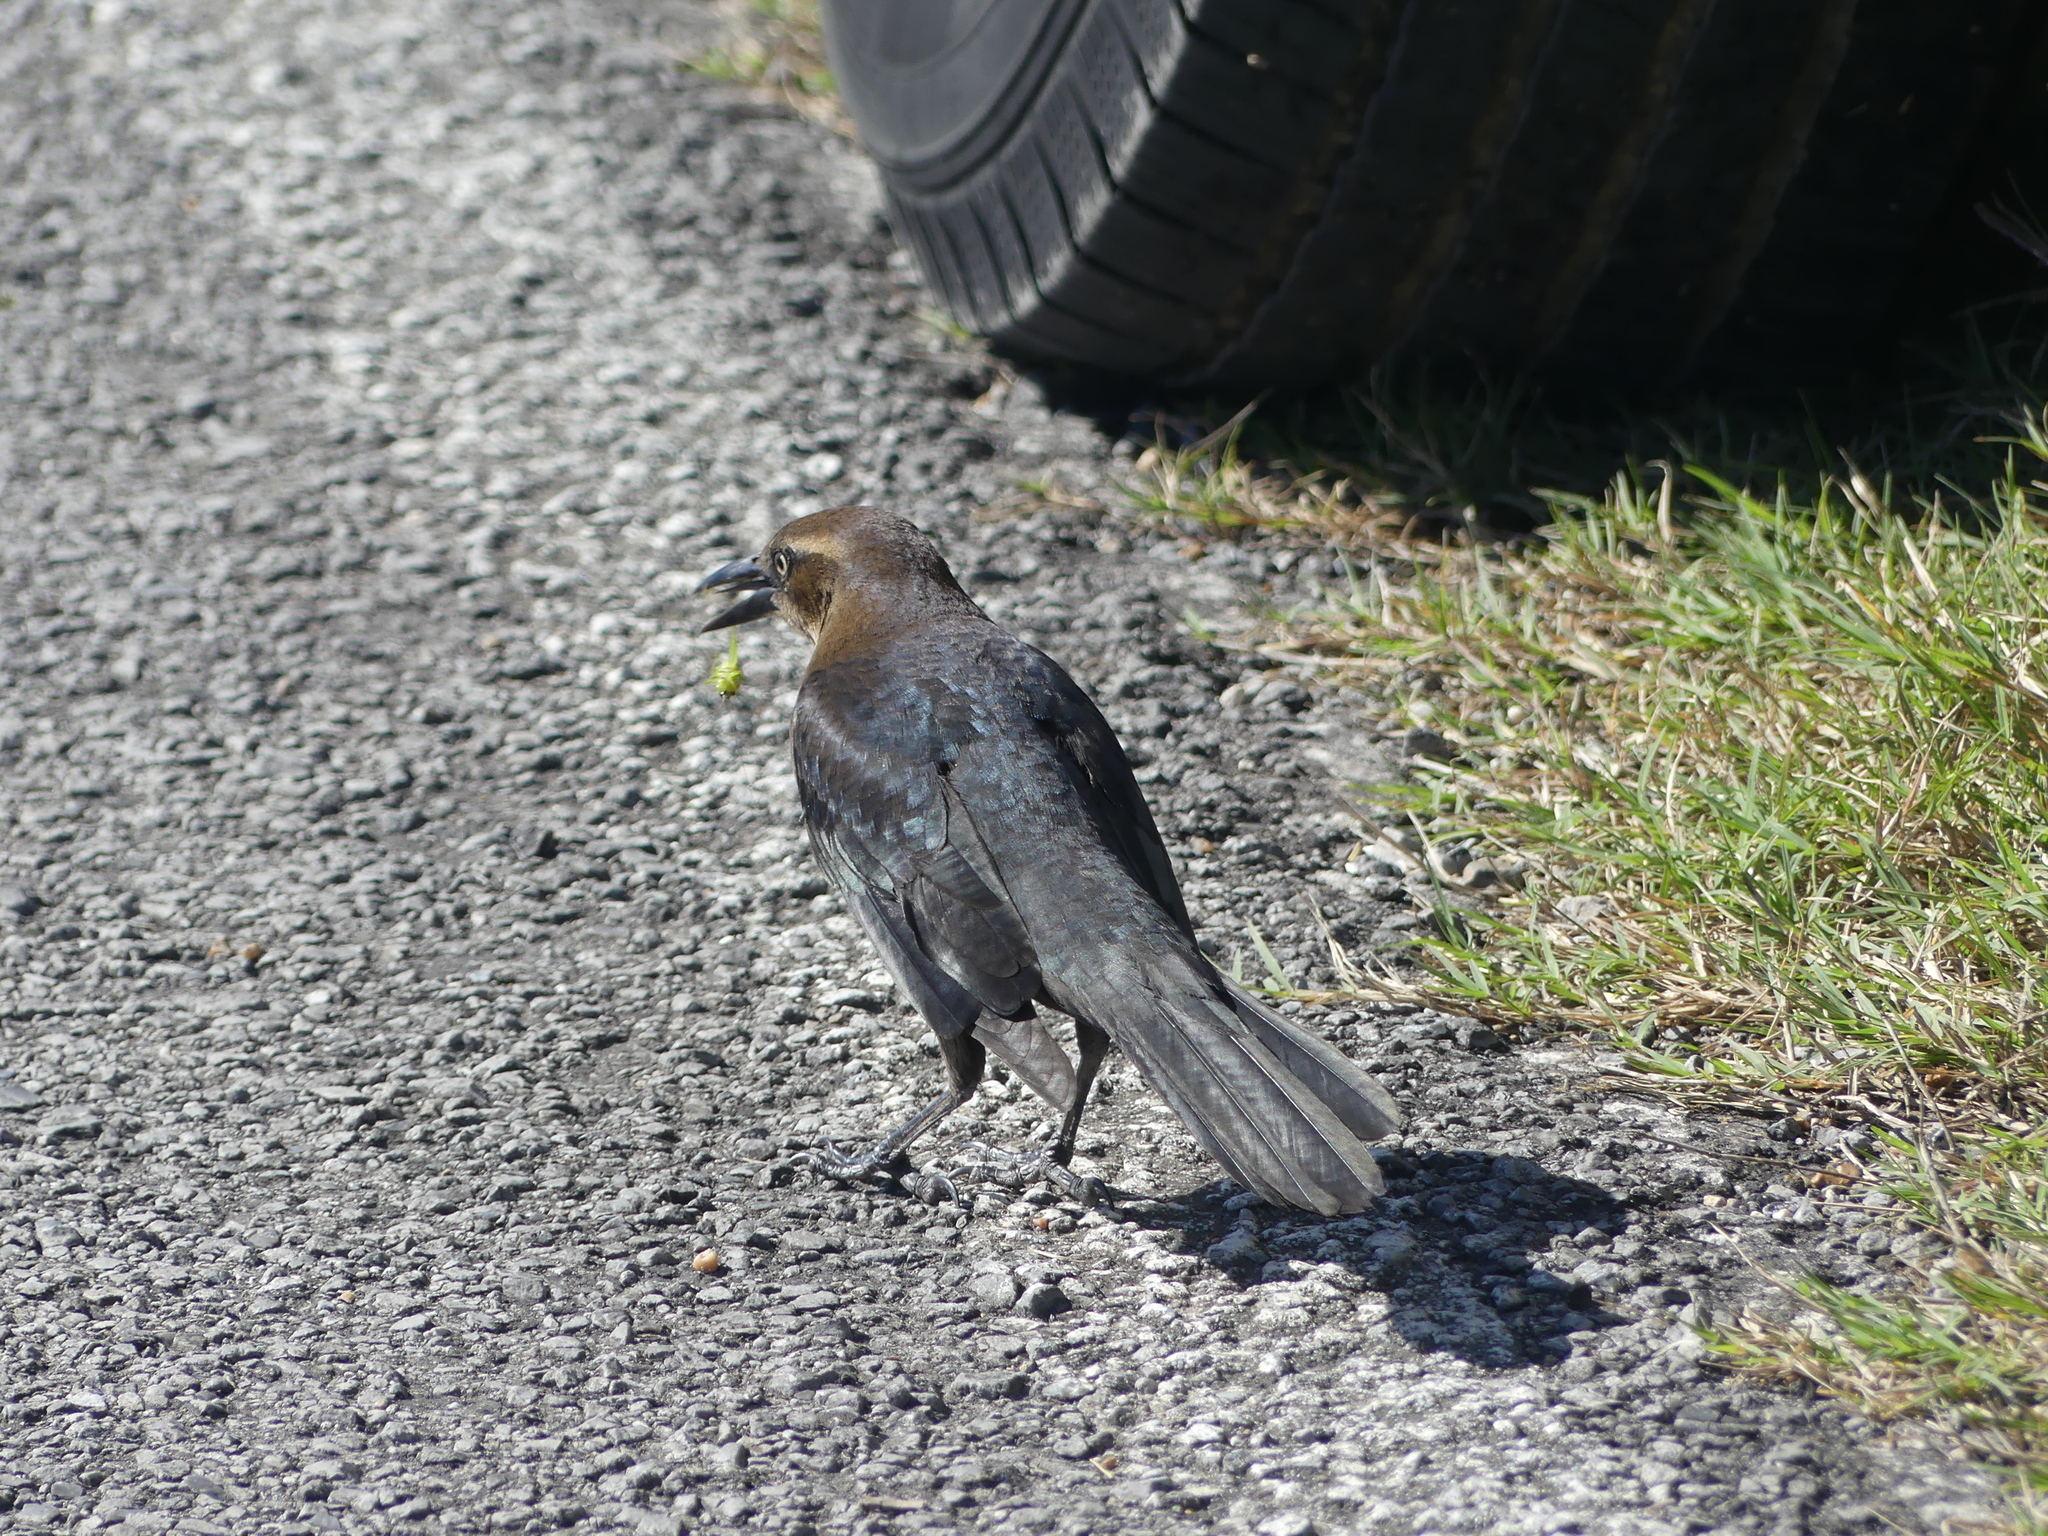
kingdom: Animalia
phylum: Chordata
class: Aves
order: Passeriformes
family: Icteridae
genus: Quiscalus
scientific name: Quiscalus mexicanus
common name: Great-tailed grackle
